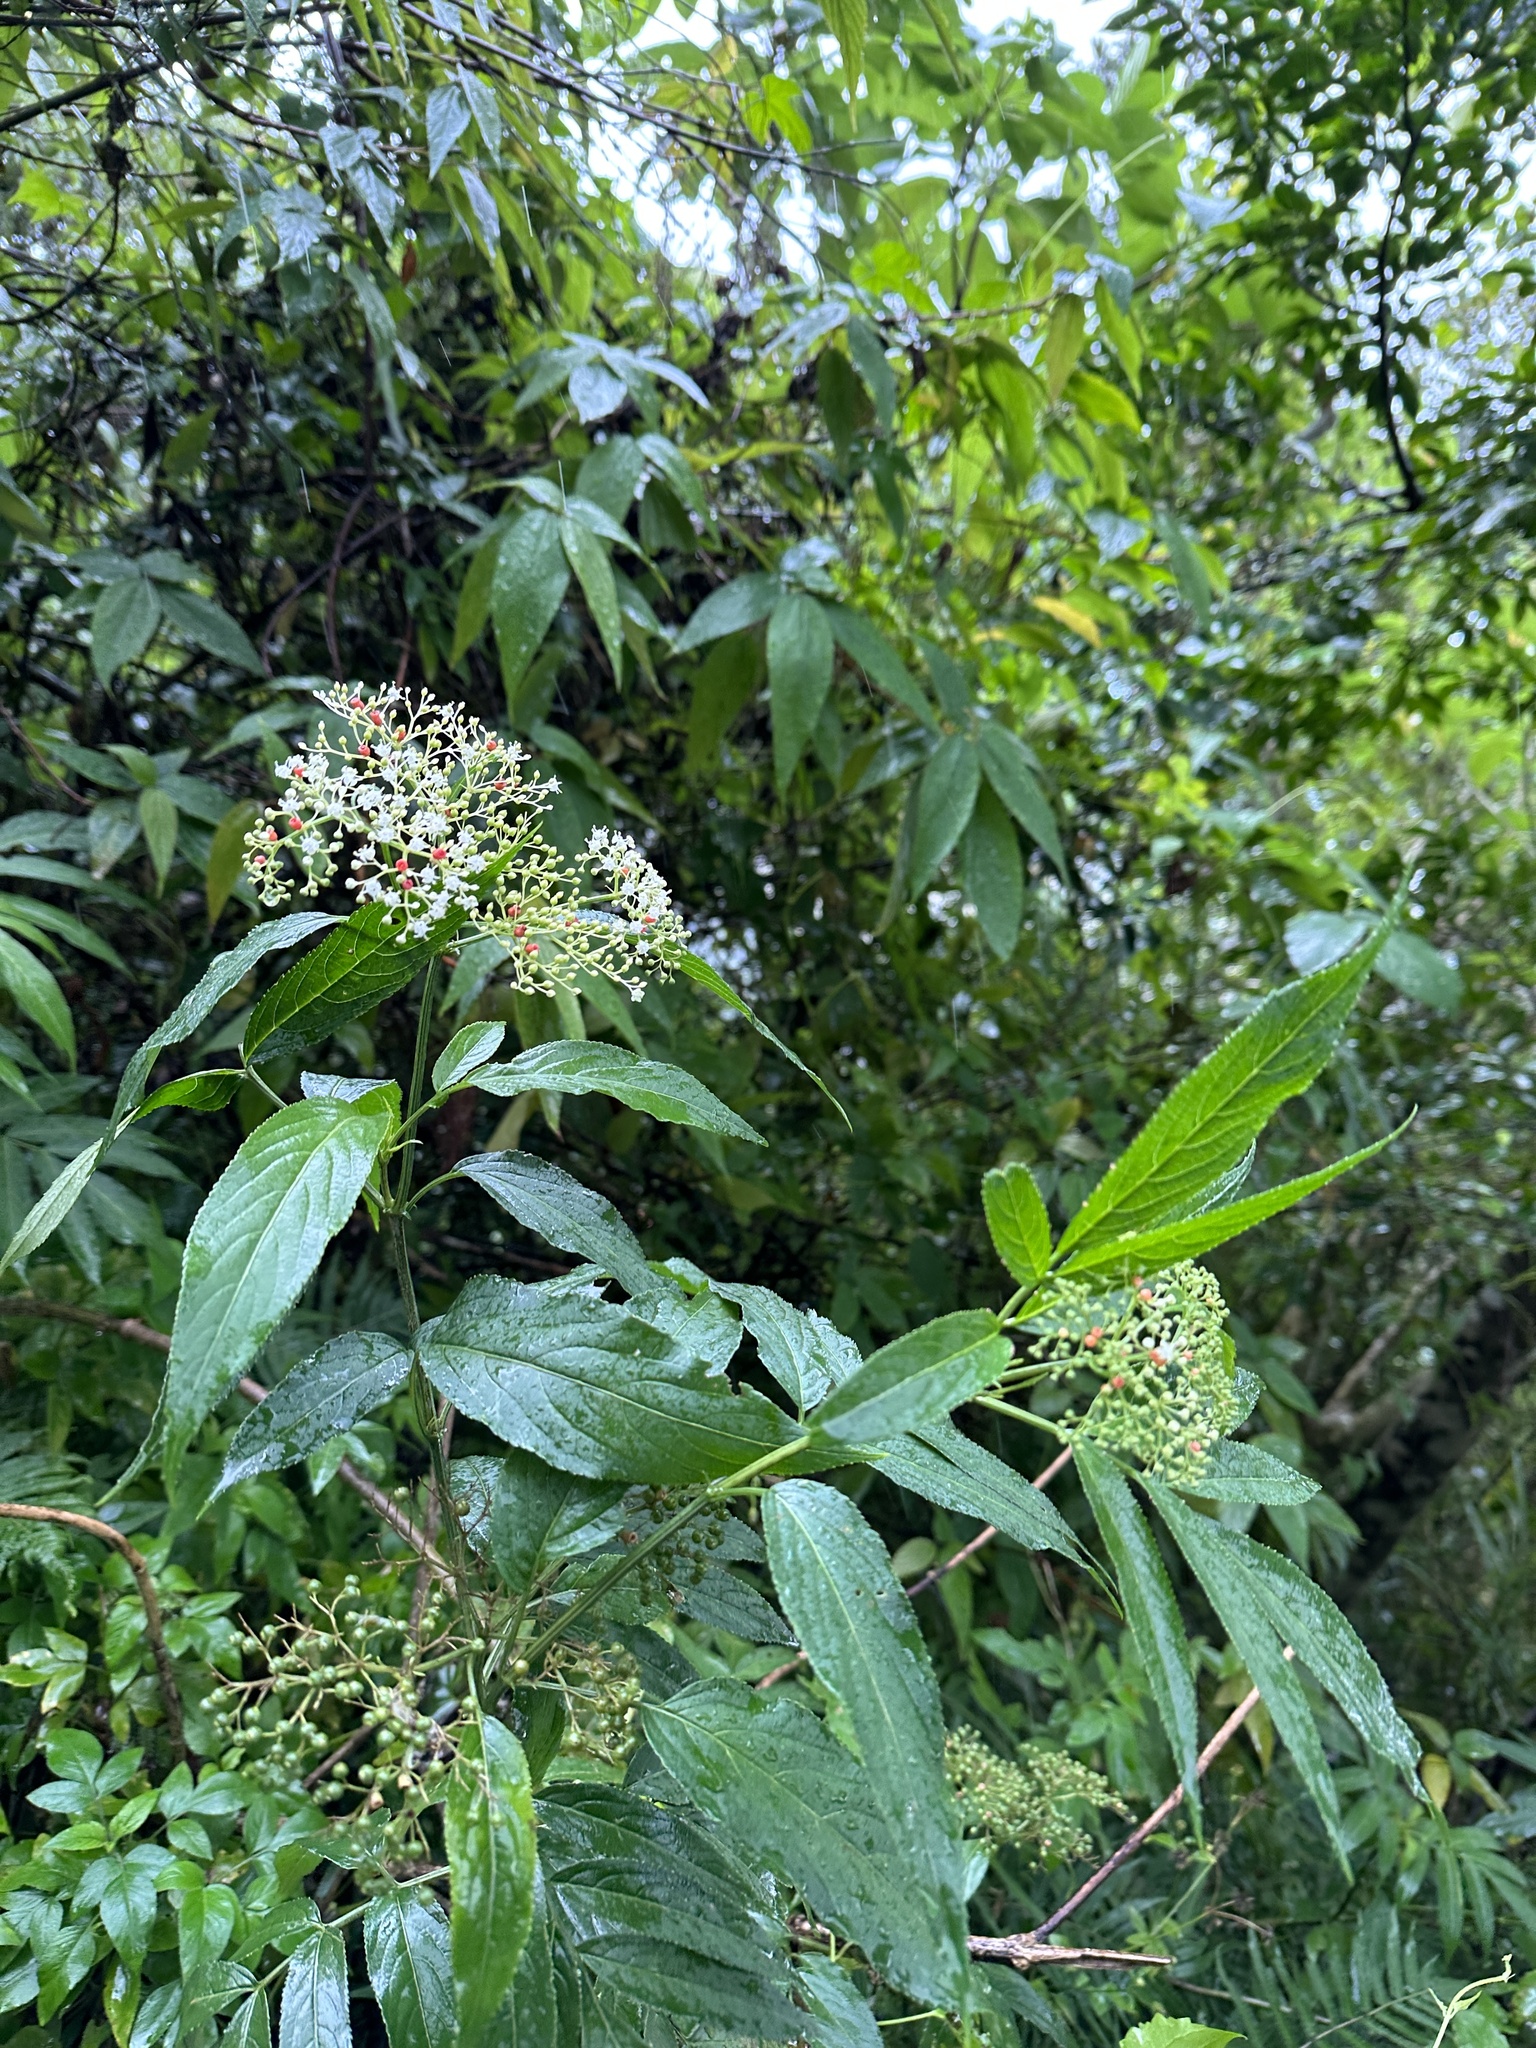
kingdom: Plantae
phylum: Tracheophyta
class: Magnoliopsida
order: Dipsacales
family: Viburnaceae
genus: Sambucus
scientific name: Sambucus javanica
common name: Chinese elder
